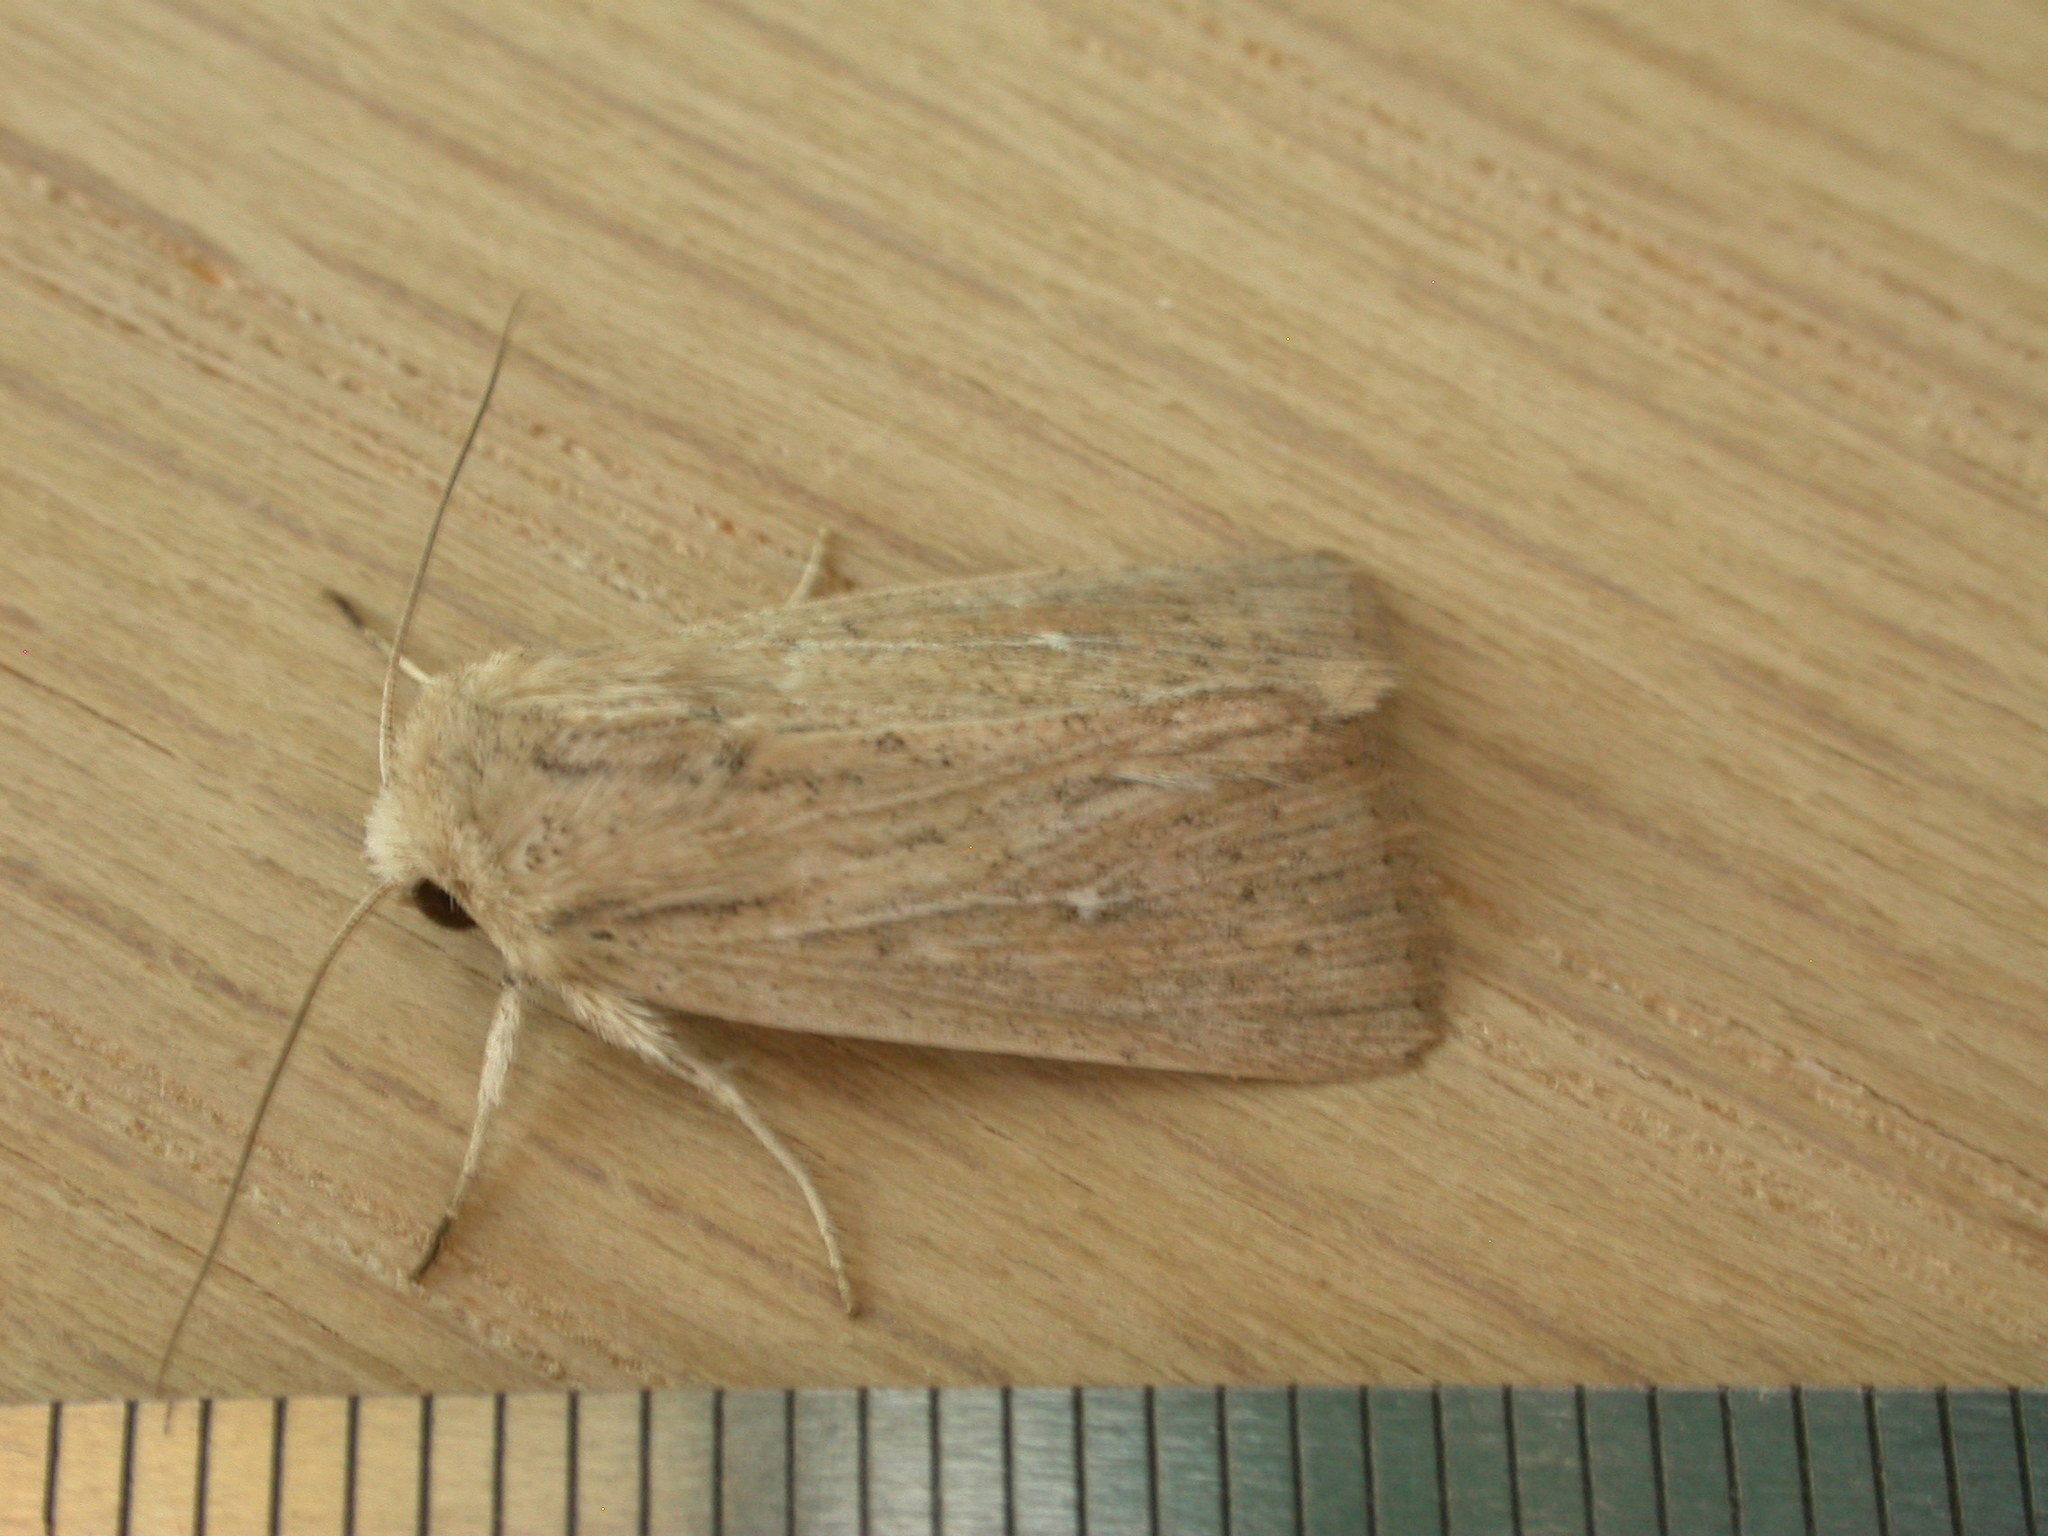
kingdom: Animalia
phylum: Arthropoda
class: Insecta
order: Lepidoptera
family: Noctuidae
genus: Leucania
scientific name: Leucania uda
